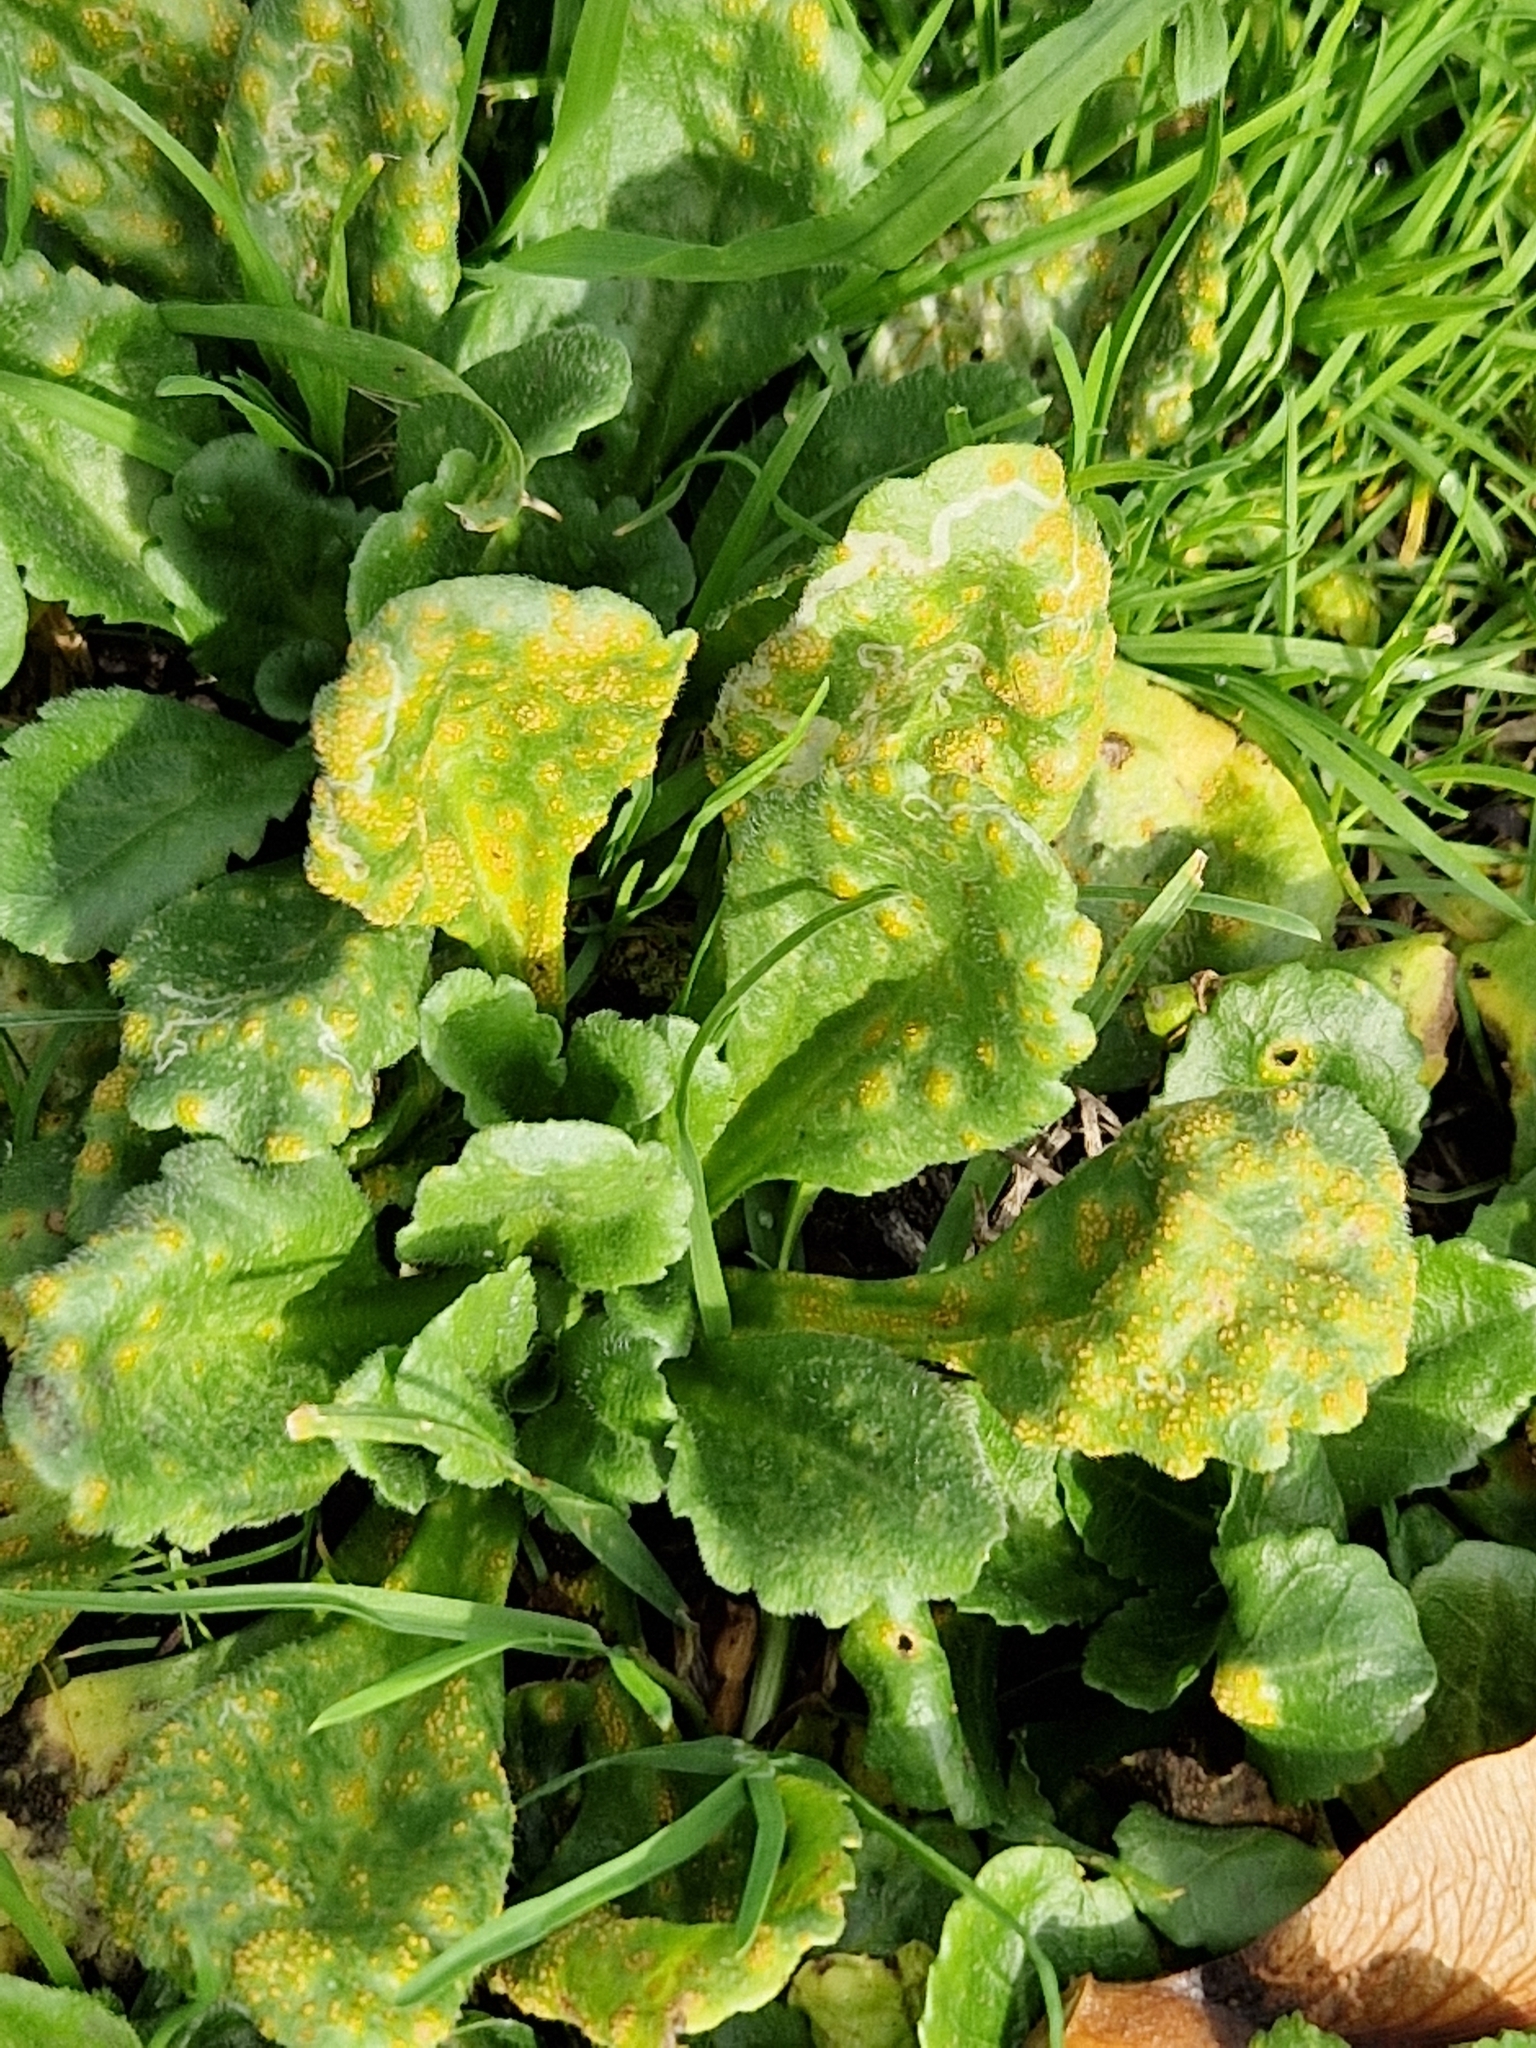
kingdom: Fungi
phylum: Basidiomycota
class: Pucciniomycetes
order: Pucciniales
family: Pucciniaceae
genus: Puccinia
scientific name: Puccinia lagenophorae
